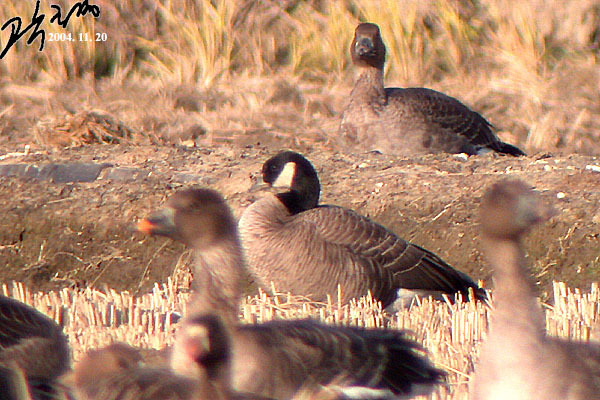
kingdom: Animalia
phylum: Chordata
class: Aves
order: Anseriformes
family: Anatidae
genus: Branta
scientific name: Branta hutchinsii
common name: Cackling goose
